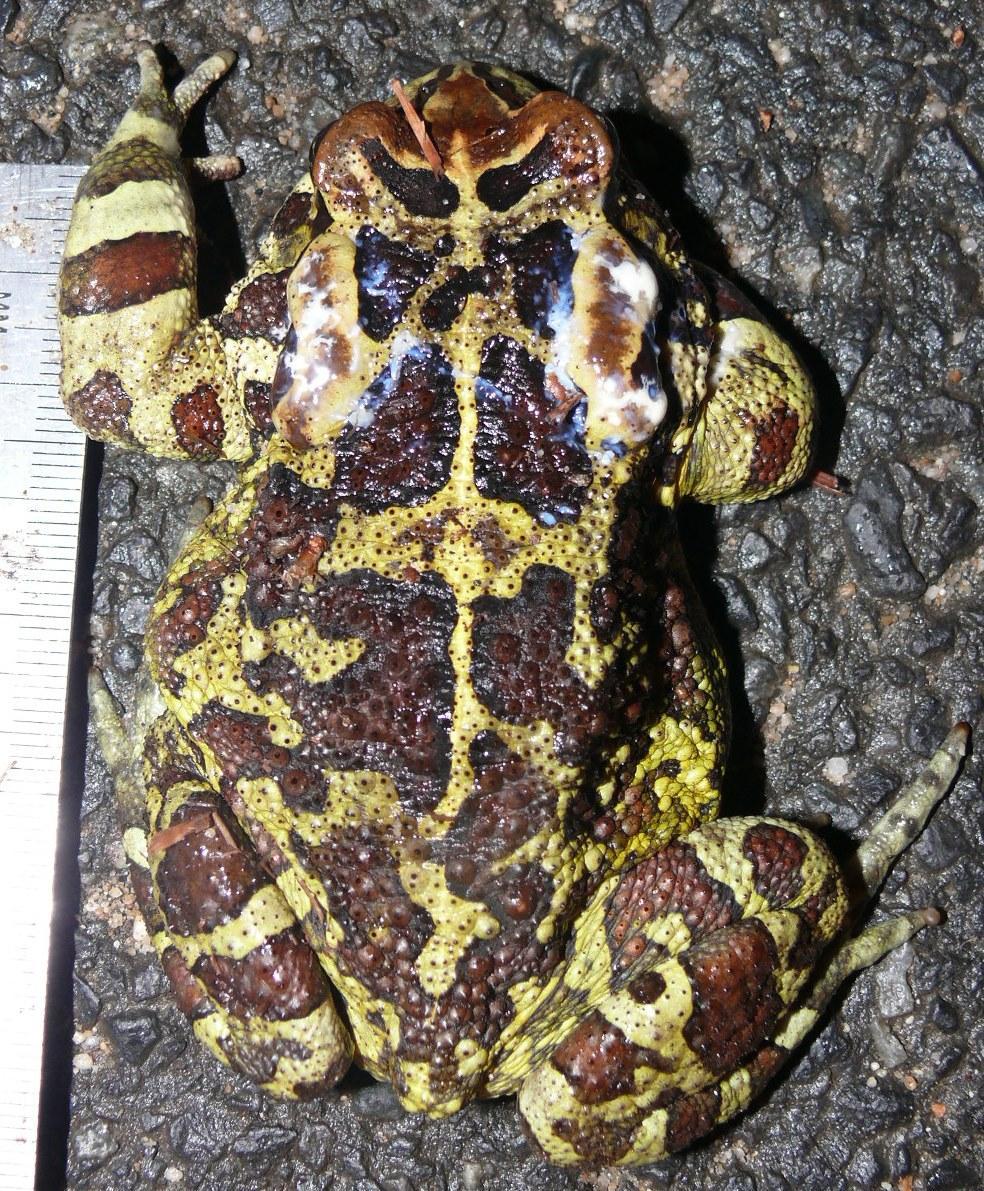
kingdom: Animalia
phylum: Chordata
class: Amphibia
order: Anura
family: Bufonidae
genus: Sclerophrys
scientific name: Sclerophrys pantherina
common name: Panther toad
